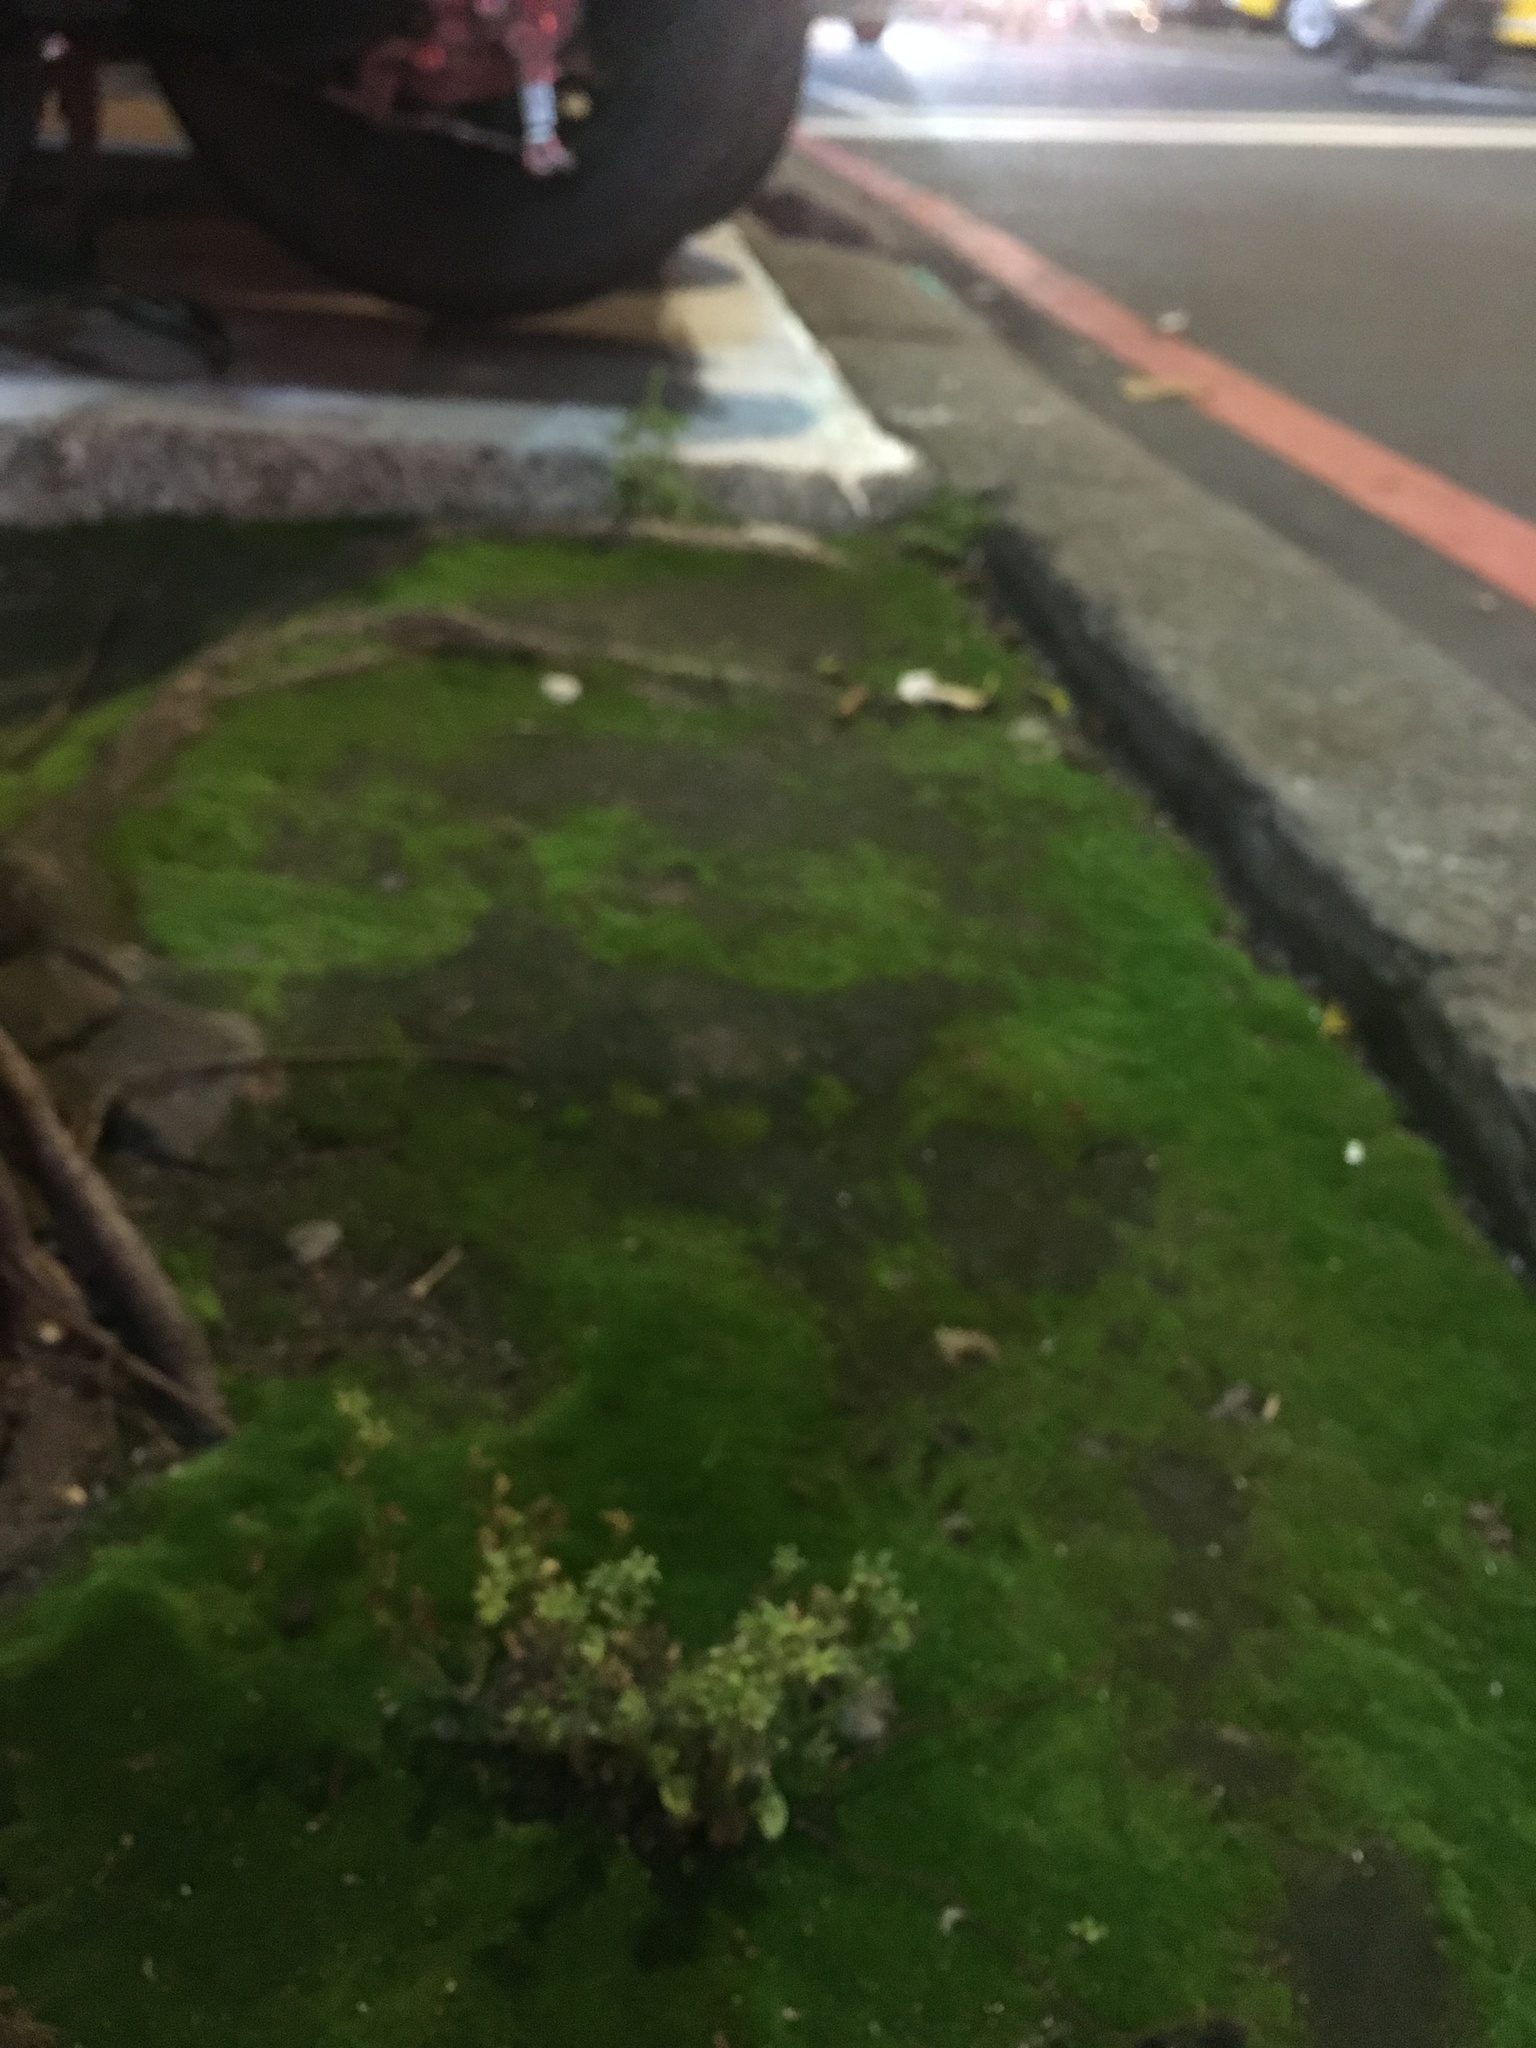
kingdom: Plantae
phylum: Tracheophyta
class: Magnoliopsida
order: Lamiales
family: Mazaceae
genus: Mazus
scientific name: Mazus pumilus
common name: Japanese mazus
